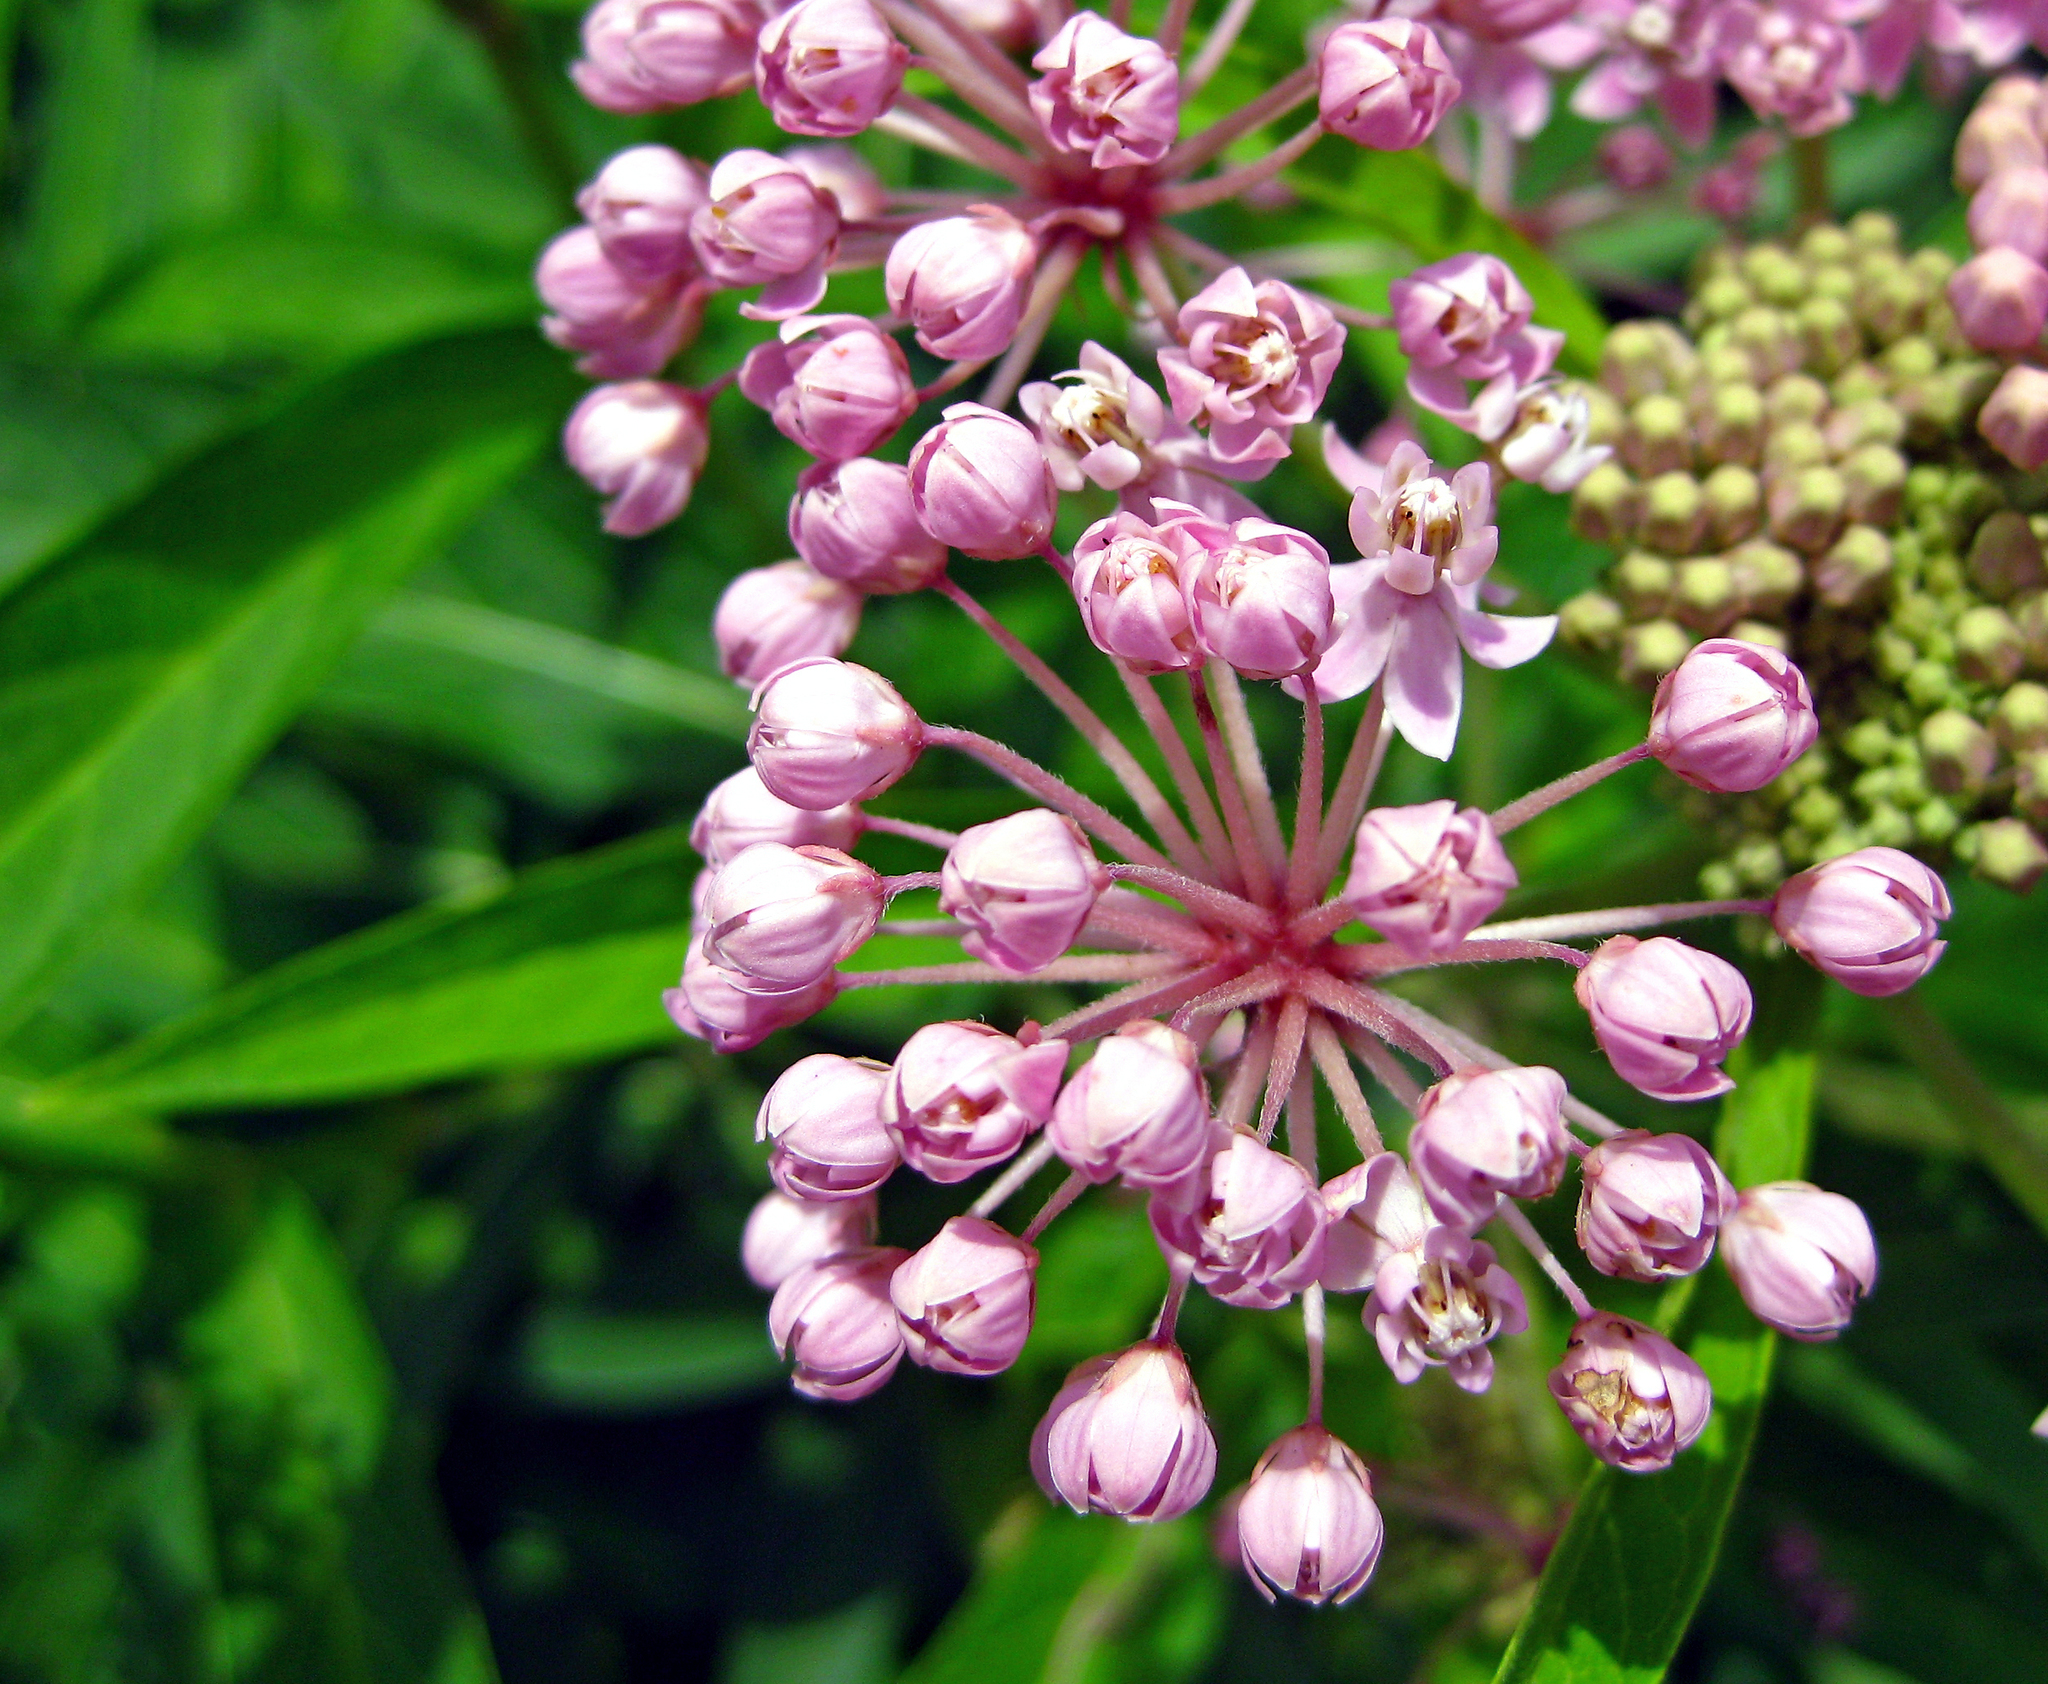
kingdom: Plantae
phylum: Tracheophyta
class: Magnoliopsida
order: Gentianales
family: Apocynaceae
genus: Asclepias
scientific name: Asclepias incarnata
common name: Swamp milkweed
